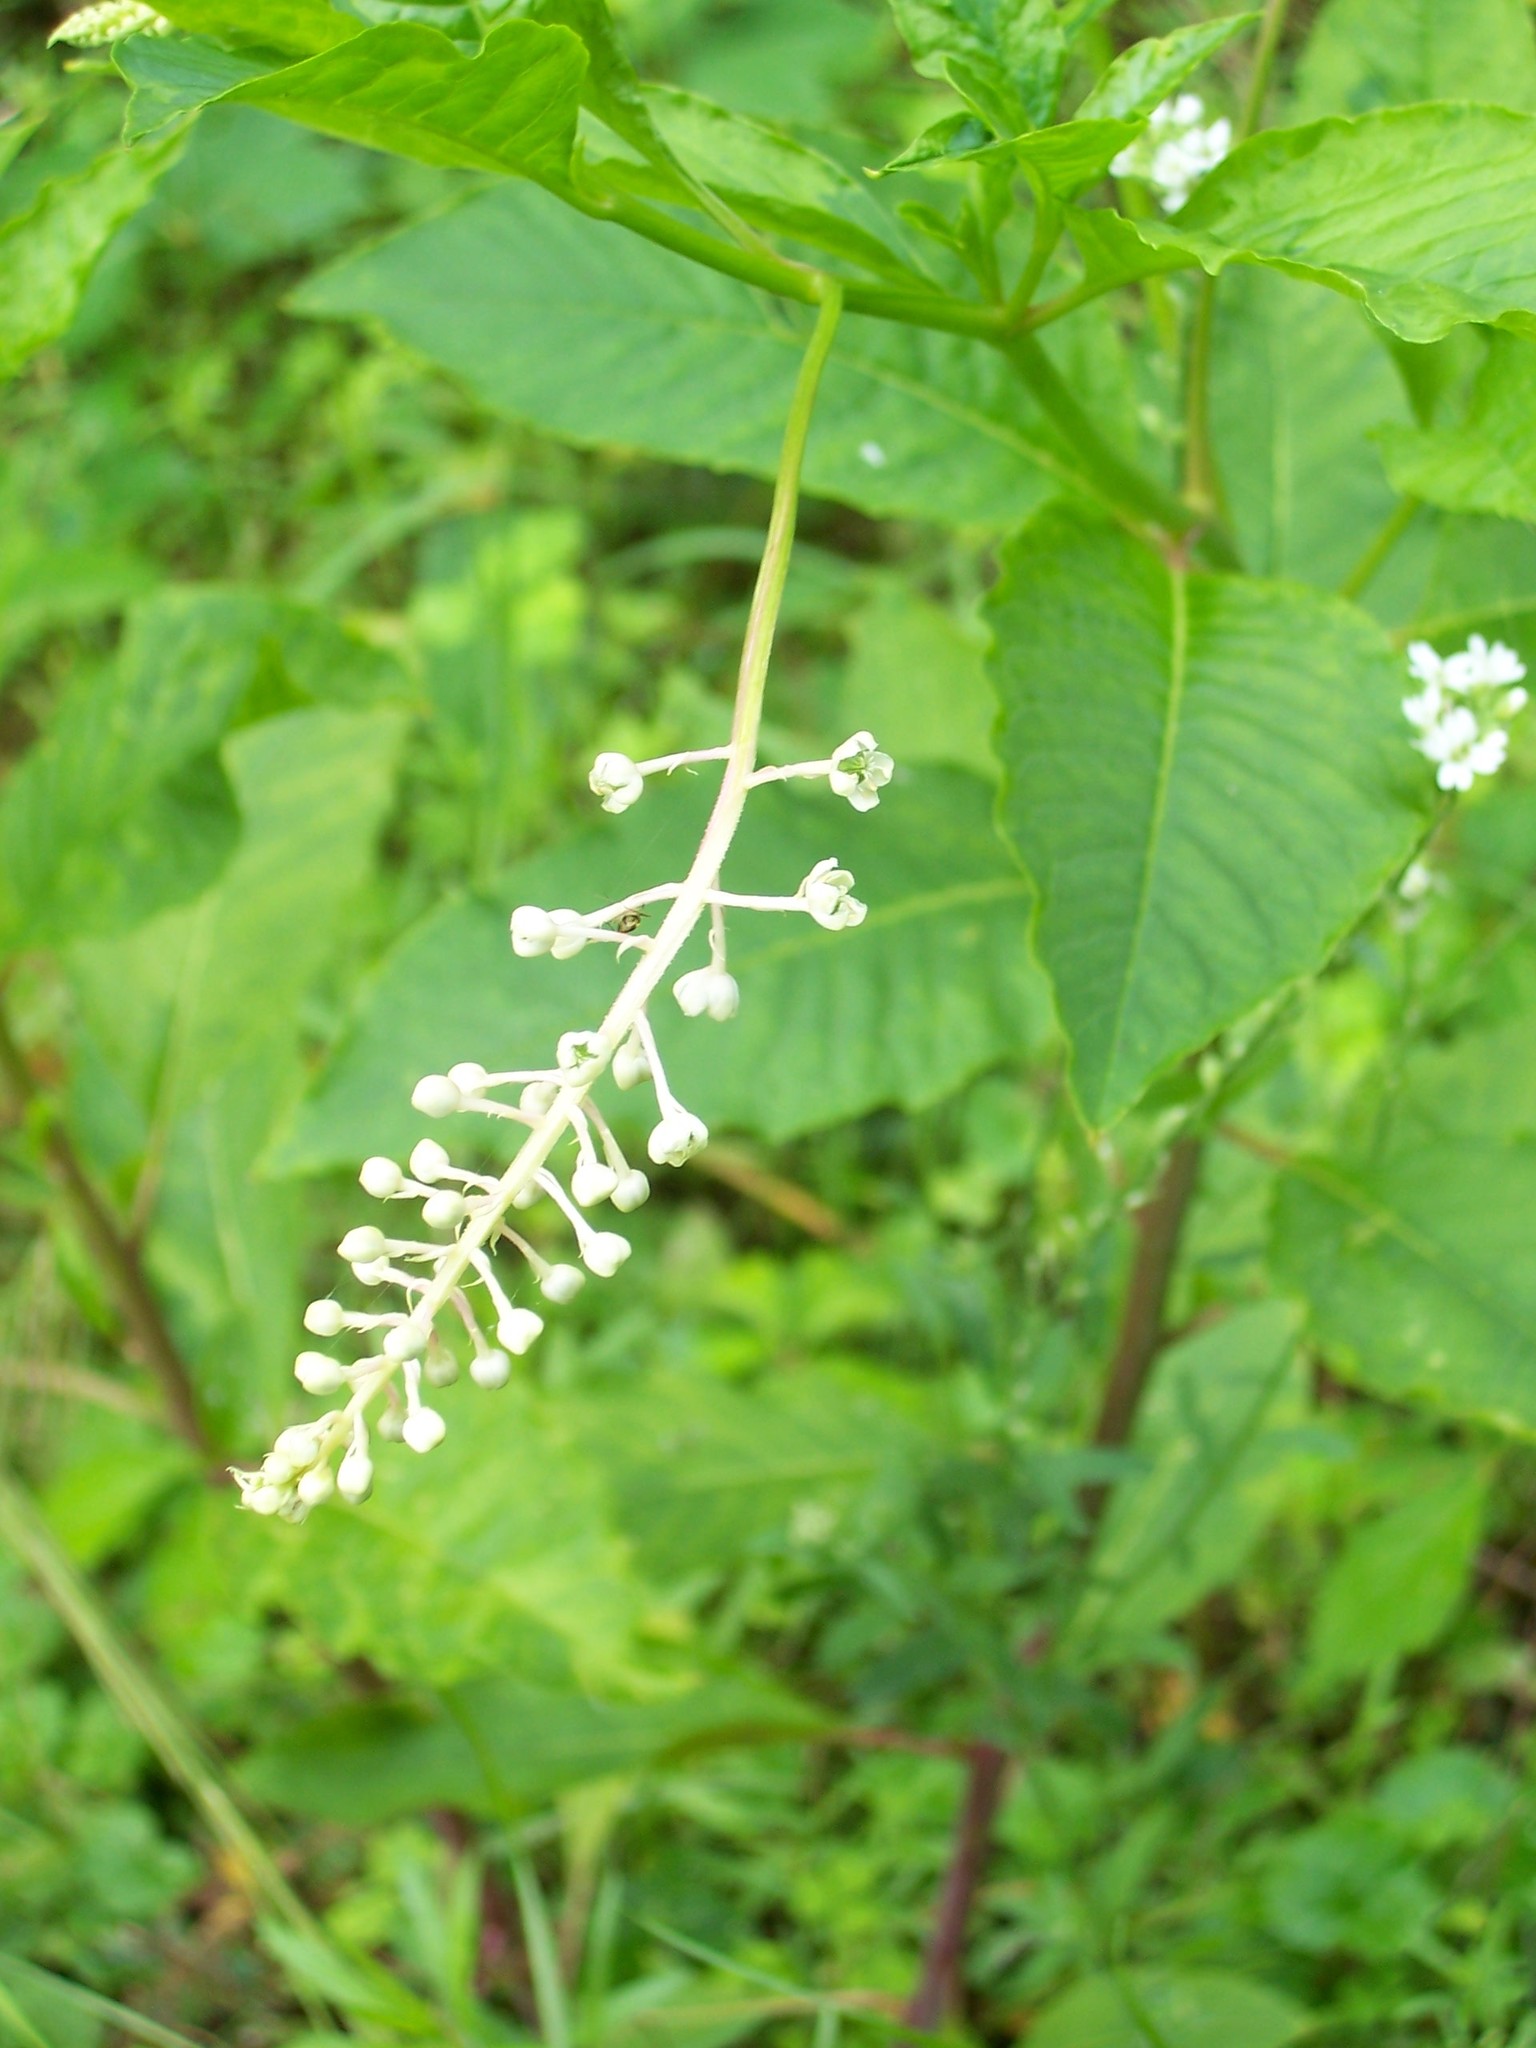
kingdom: Plantae
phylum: Tracheophyta
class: Magnoliopsida
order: Caryophyllales
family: Phytolaccaceae
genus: Phytolacca
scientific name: Phytolacca americana
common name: American pokeweed
